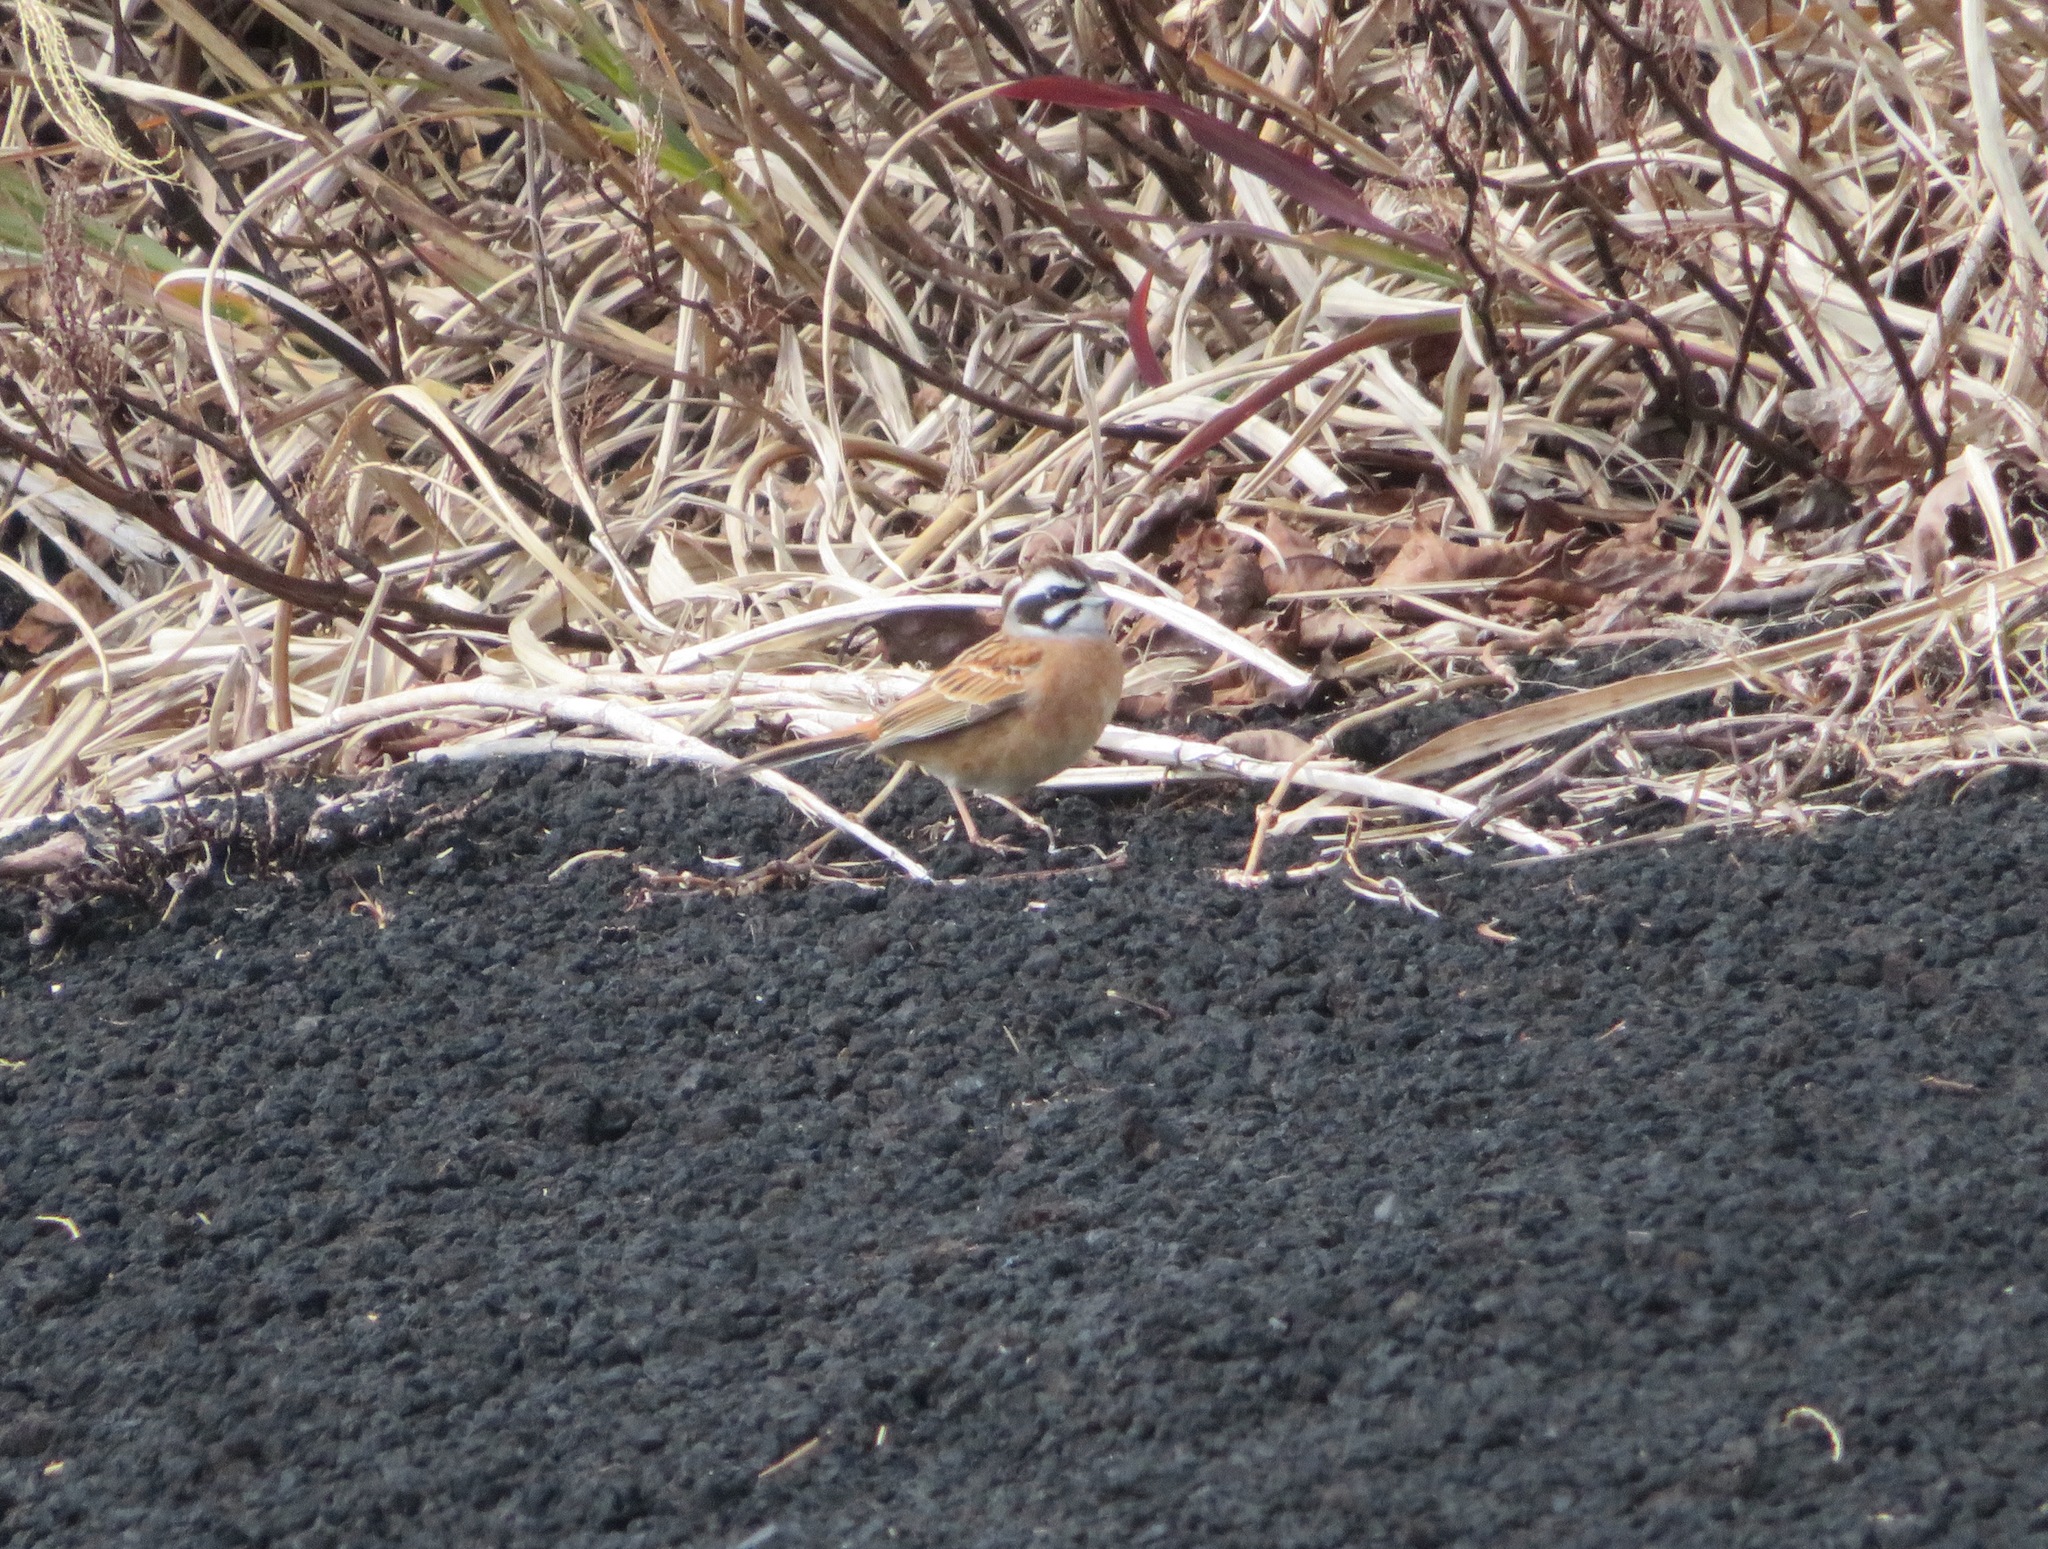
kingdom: Animalia
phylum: Chordata
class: Aves
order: Passeriformes
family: Emberizidae
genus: Emberiza
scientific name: Emberiza cioides
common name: Meadow bunting
